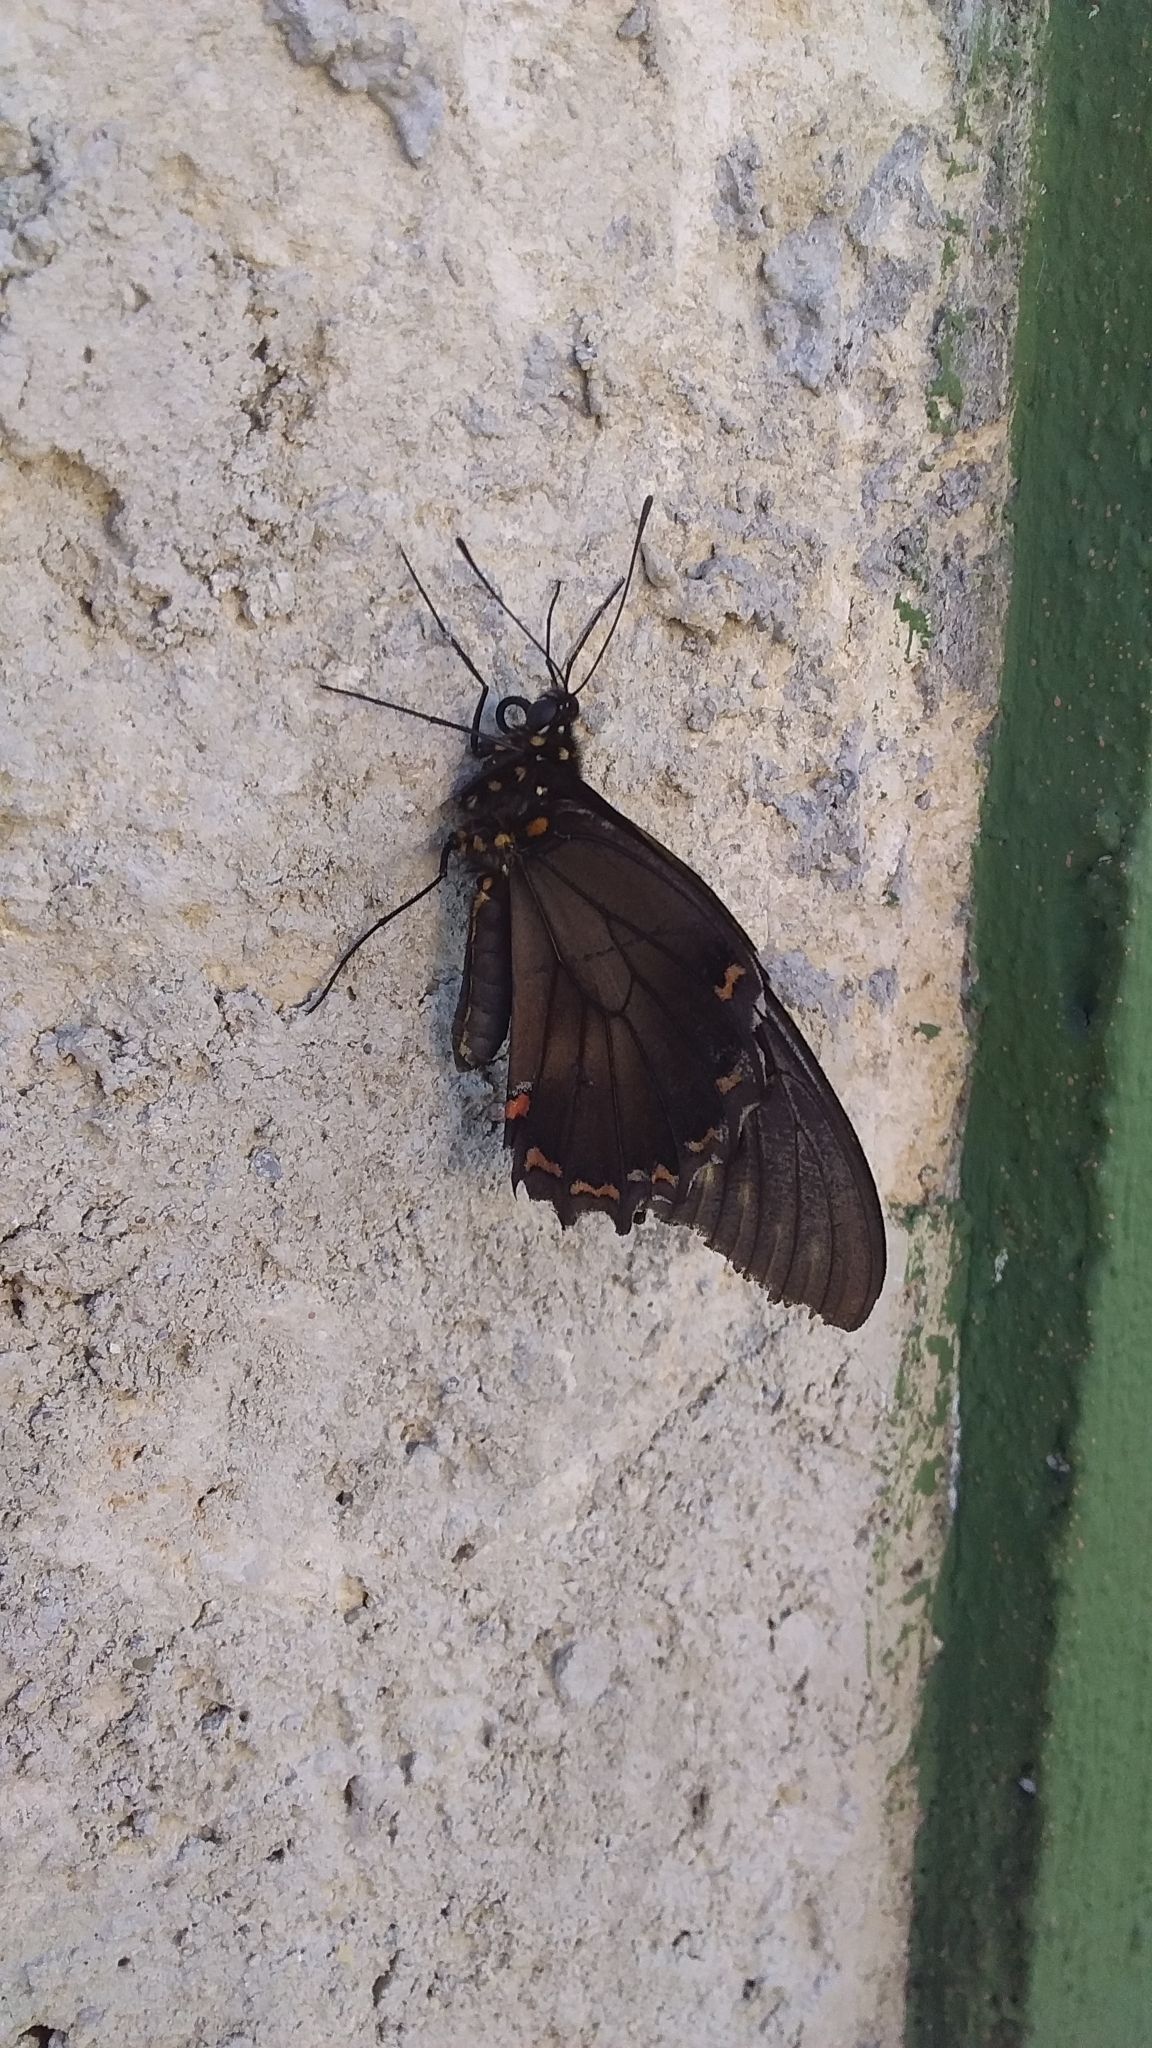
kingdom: Animalia
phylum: Arthropoda
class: Insecta
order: Lepidoptera
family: Papilionidae
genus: Battus
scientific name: Battus polydamas
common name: Polydamas swallowtail
